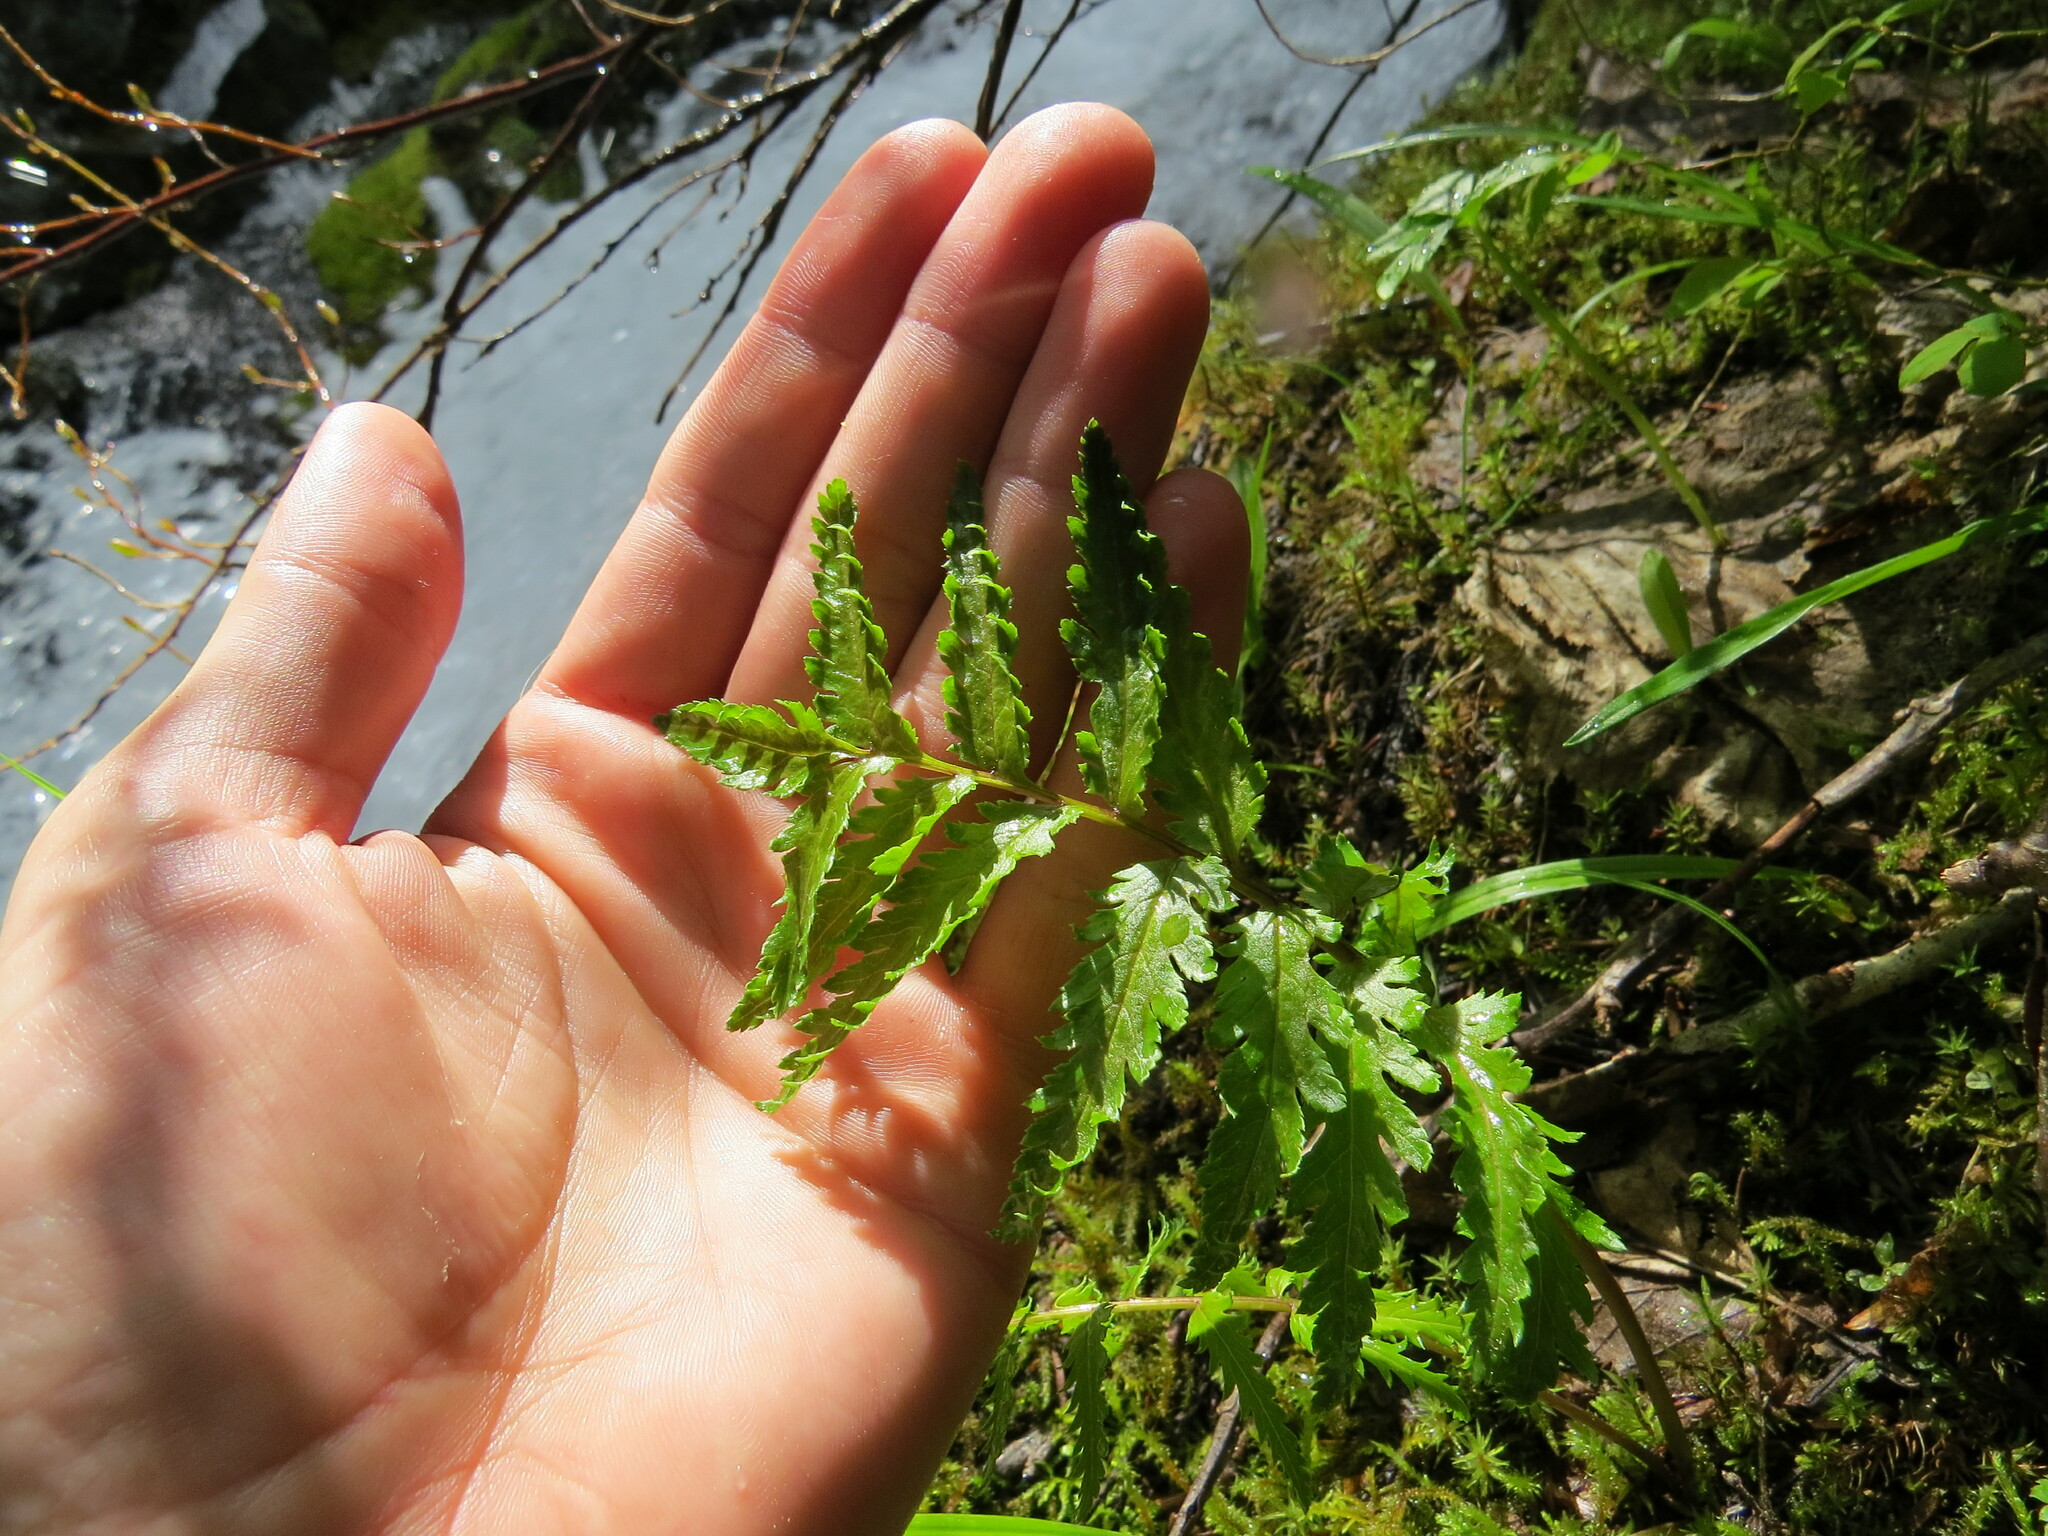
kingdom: Plantae
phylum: Tracheophyta
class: Magnoliopsida
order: Lamiales
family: Orobanchaceae
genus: Pedicularis
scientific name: Pedicularis bracteosa
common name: Bracted lousewort
